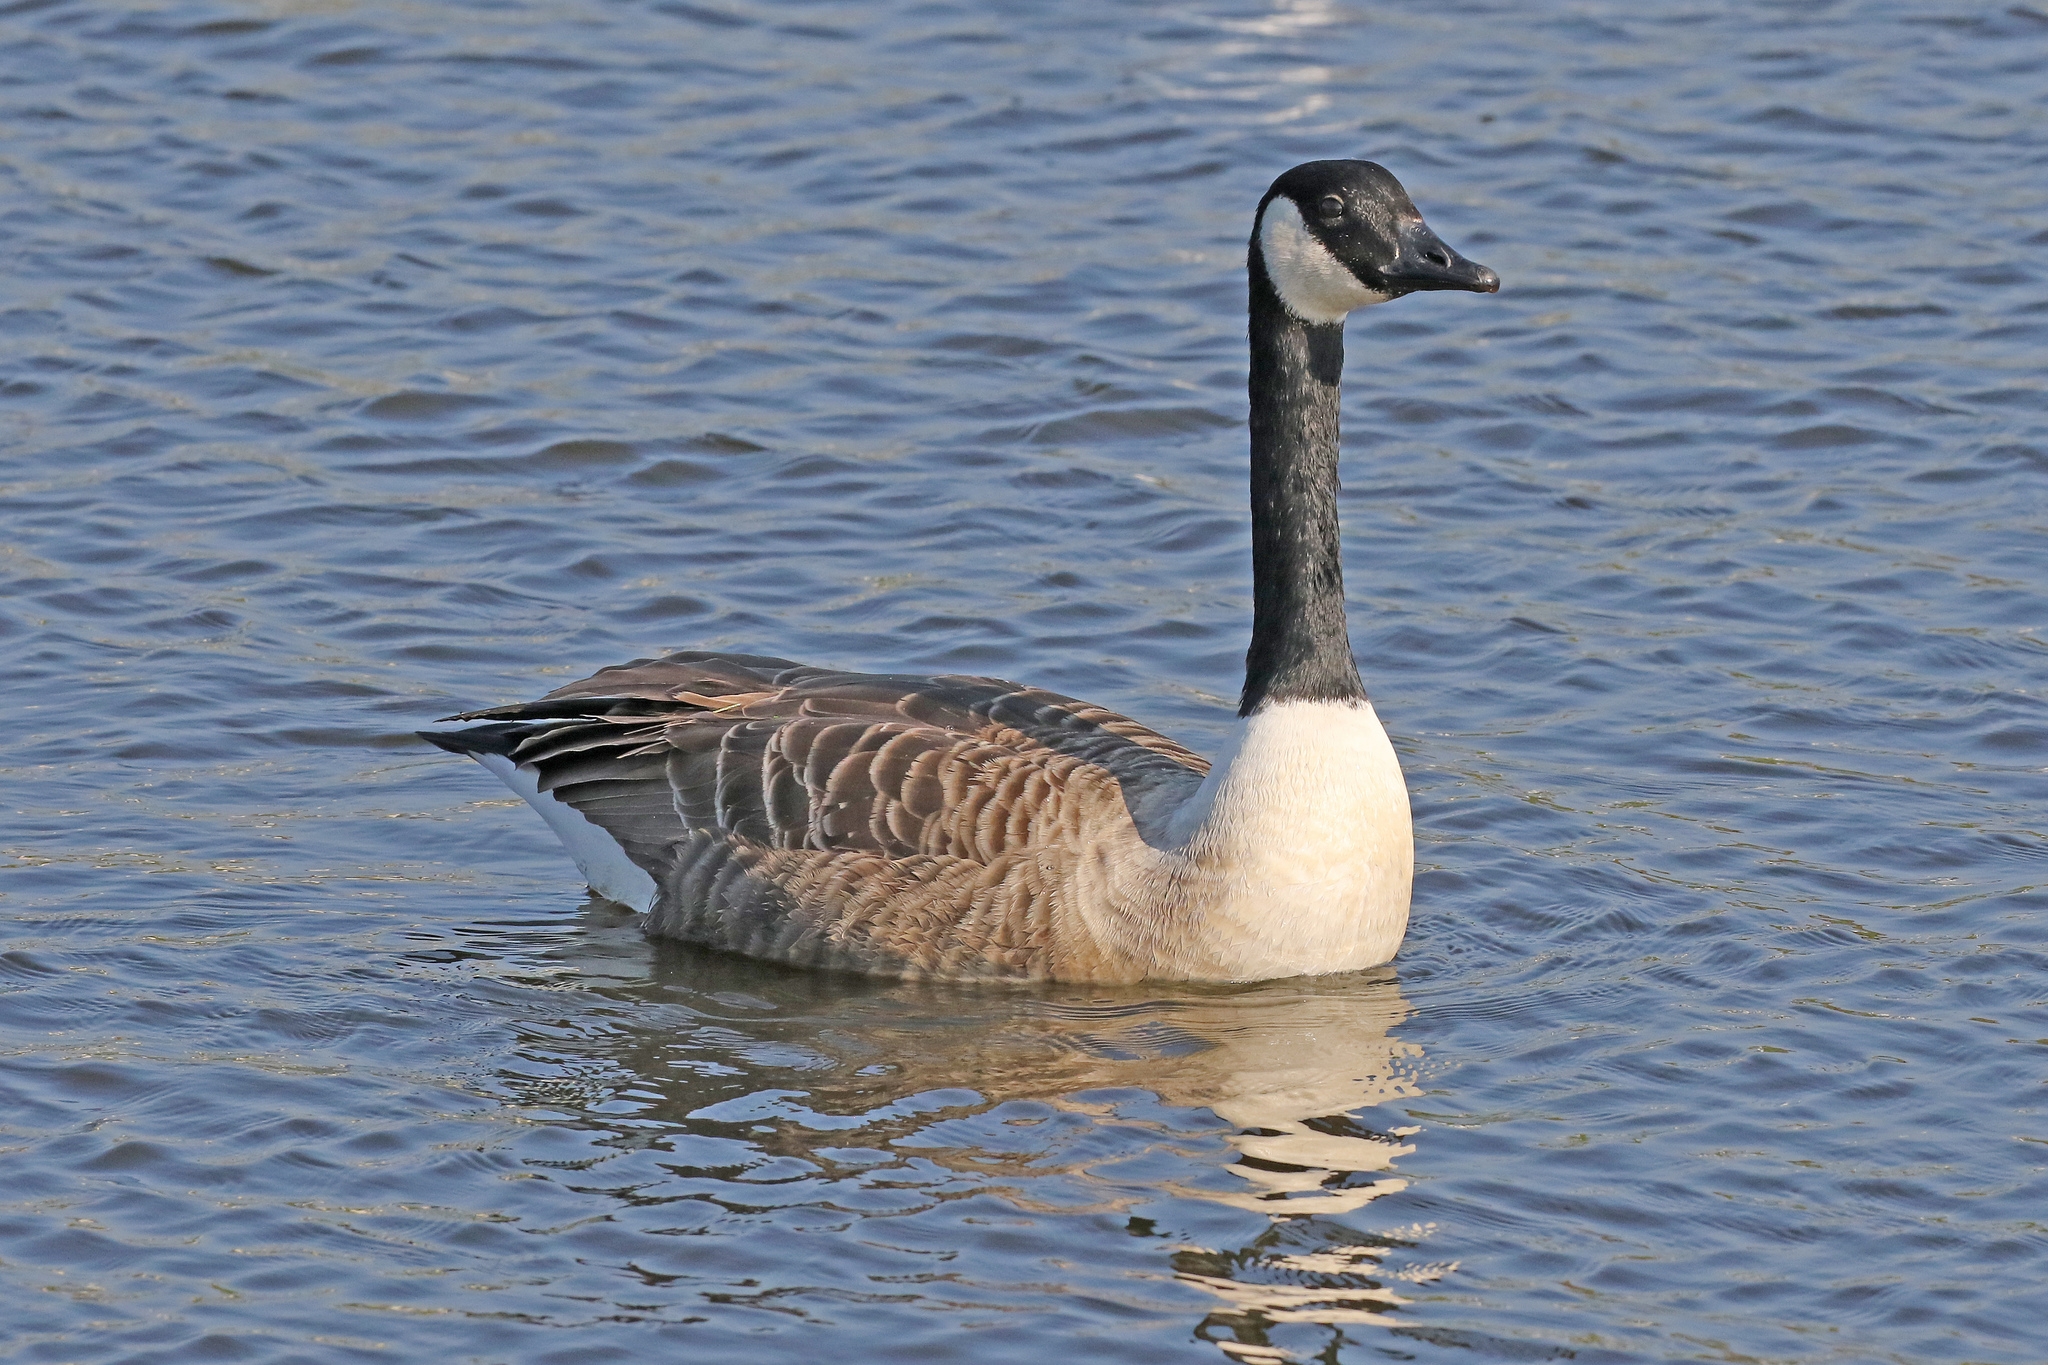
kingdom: Animalia
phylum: Chordata
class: Aves
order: Anseriformes
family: Anatidae
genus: Branta
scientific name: Branta canadensis
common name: Canada goose
